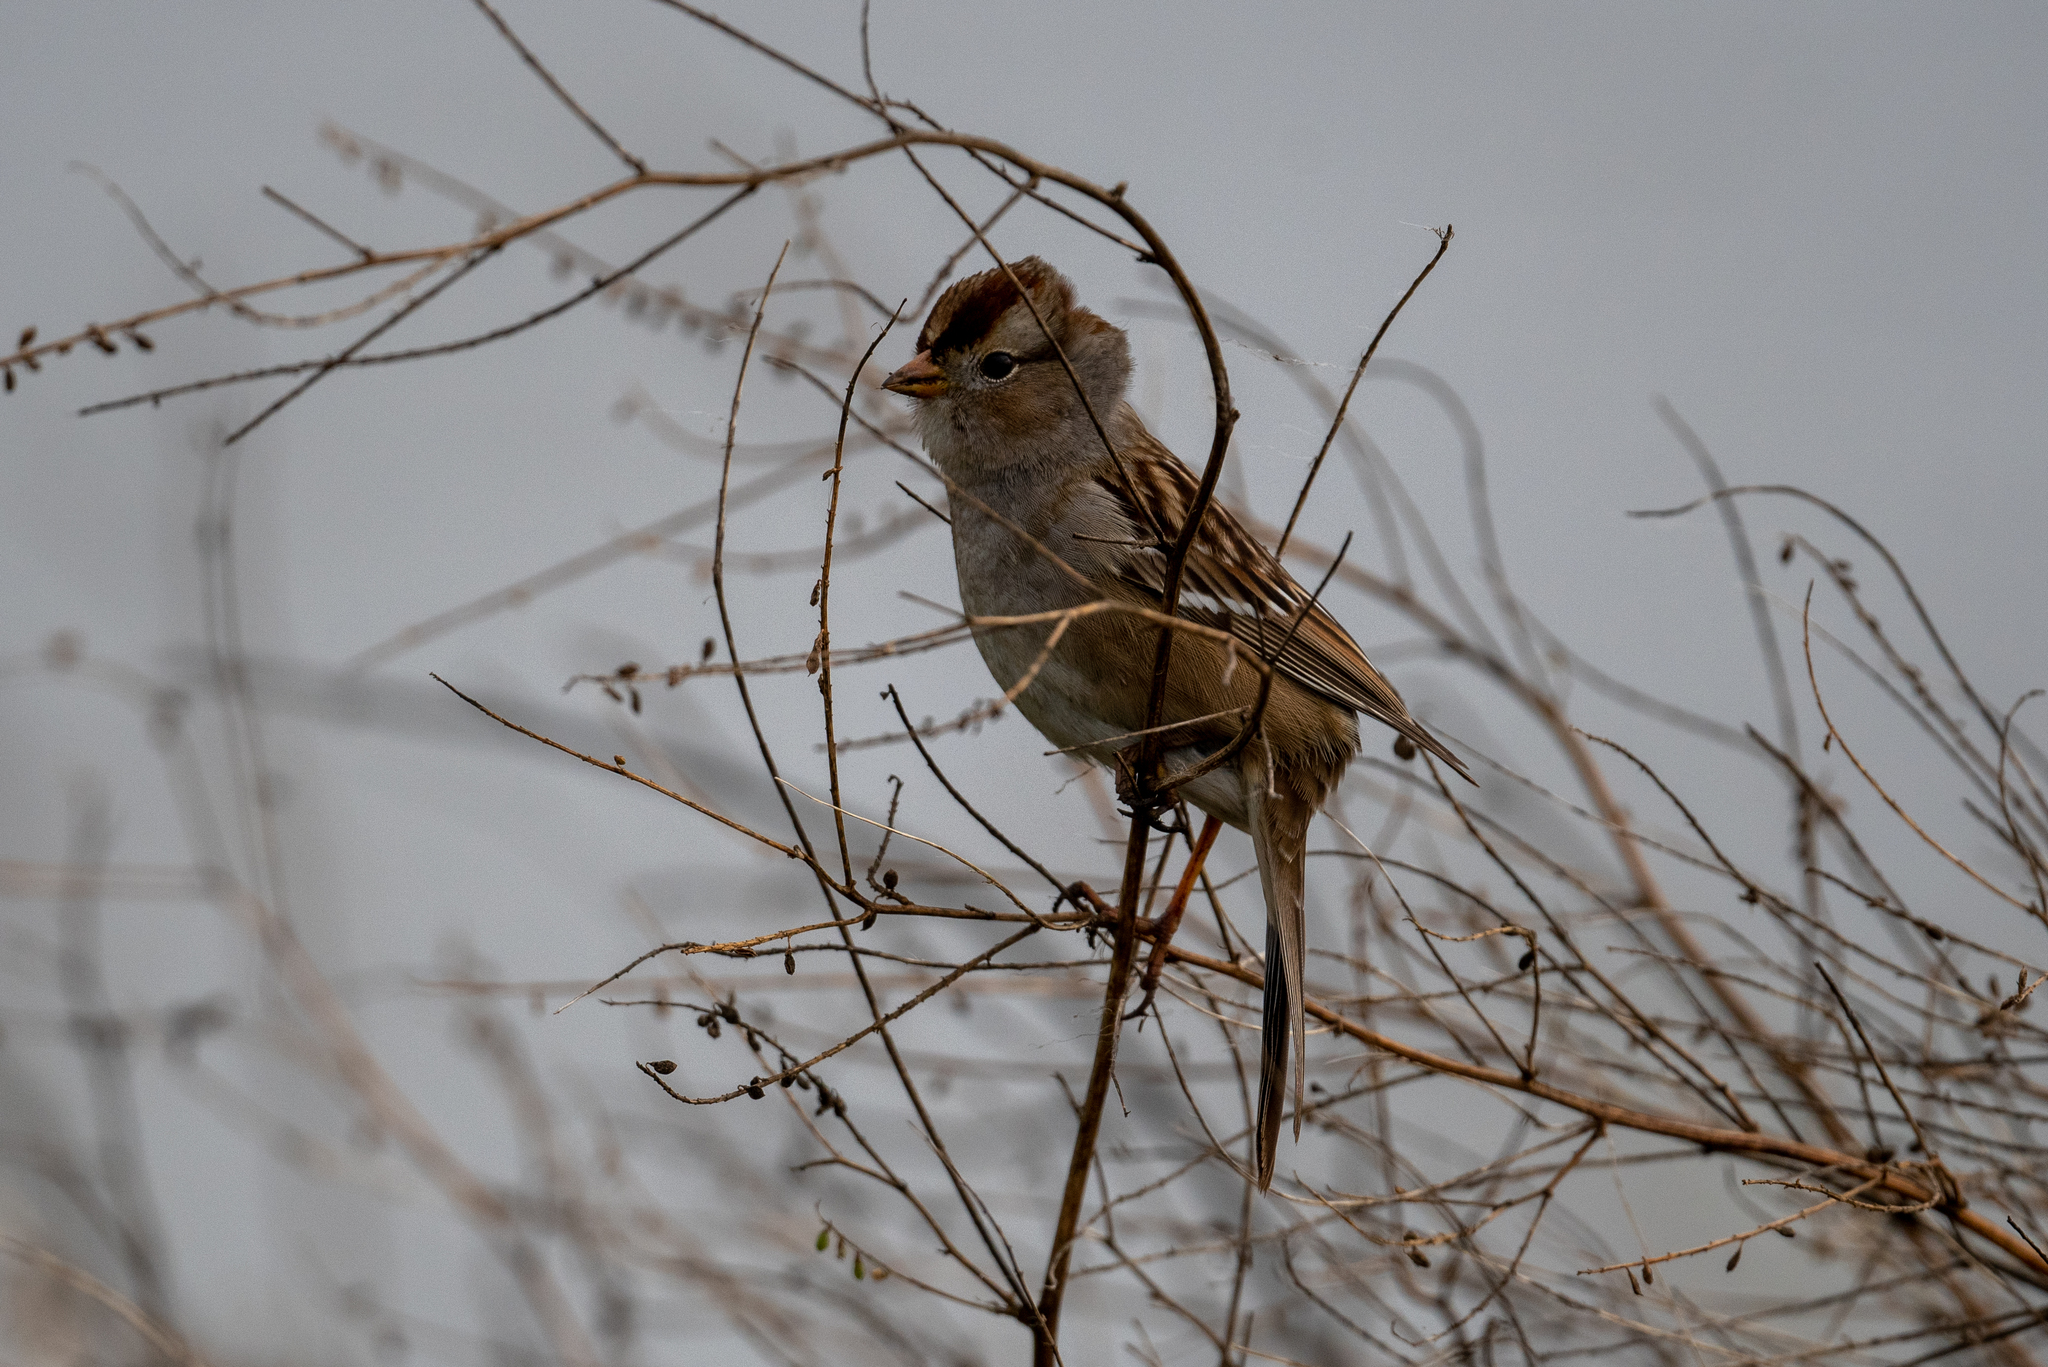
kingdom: Animalia
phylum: Chordata
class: Aves
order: Passeriformes
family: Passerellidae
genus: Zonotrichia
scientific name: Zonotrichia leucophrys
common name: White-crowned sparrow
